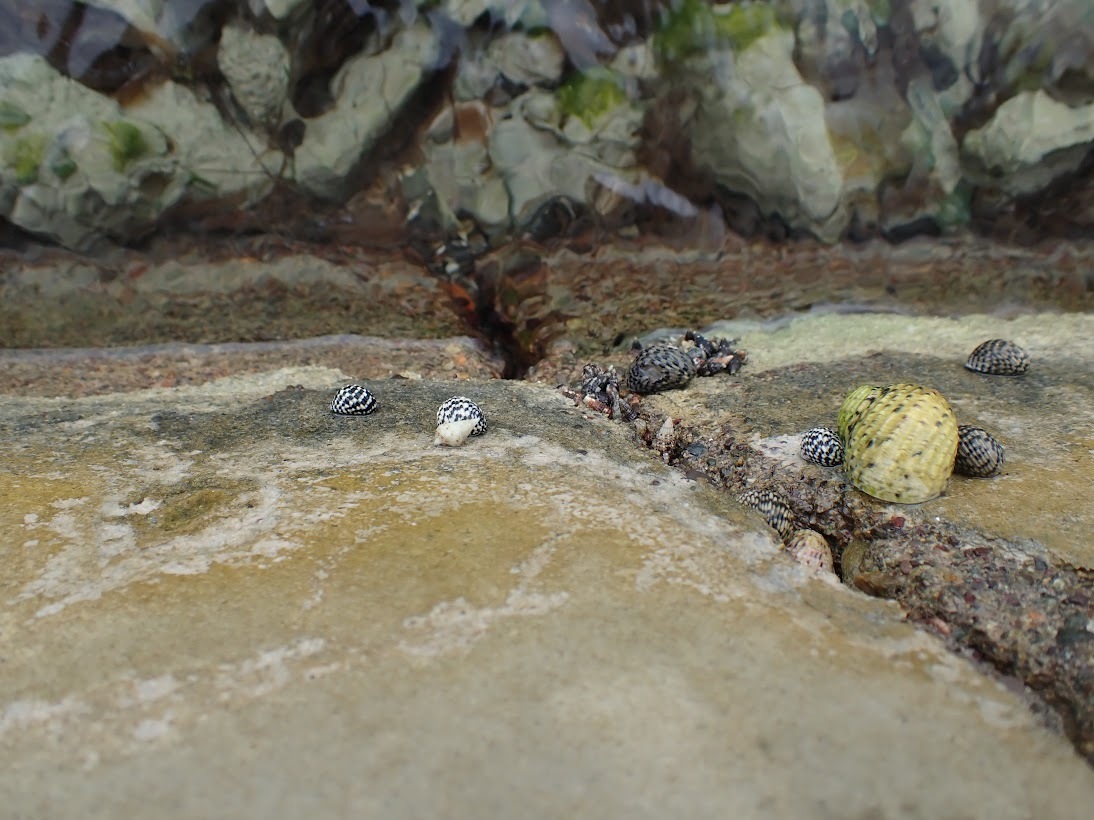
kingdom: Animalia
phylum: Mollusca
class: Gastropoda
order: Cycloneritida
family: Neritidae
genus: Nerita
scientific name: Nerita tessellata
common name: Checkered nerite
